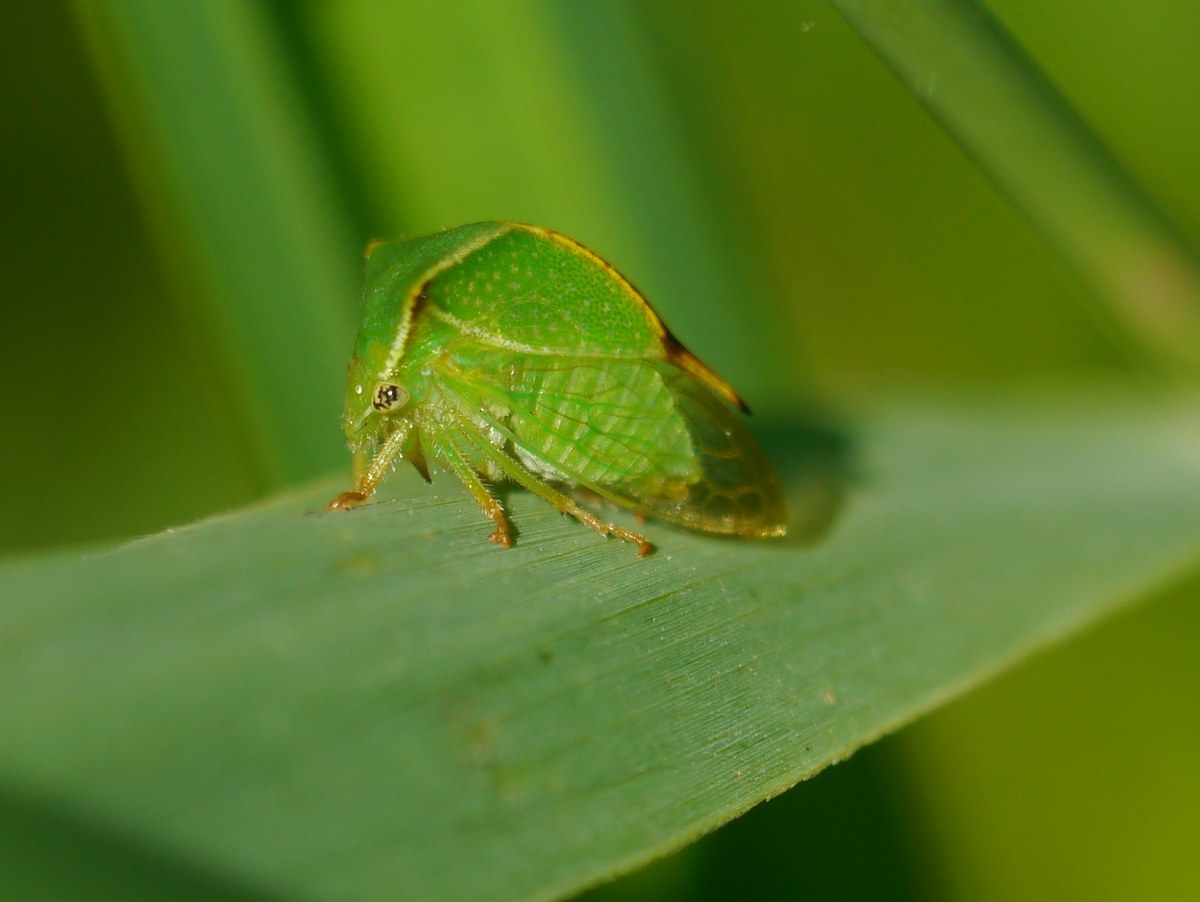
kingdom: Animalia
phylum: Arthropoda
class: Insecta
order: Hemiptera
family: Membracidae
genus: Stictocephala
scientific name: Stictocephala bisonia
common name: American buffalo treehopper
